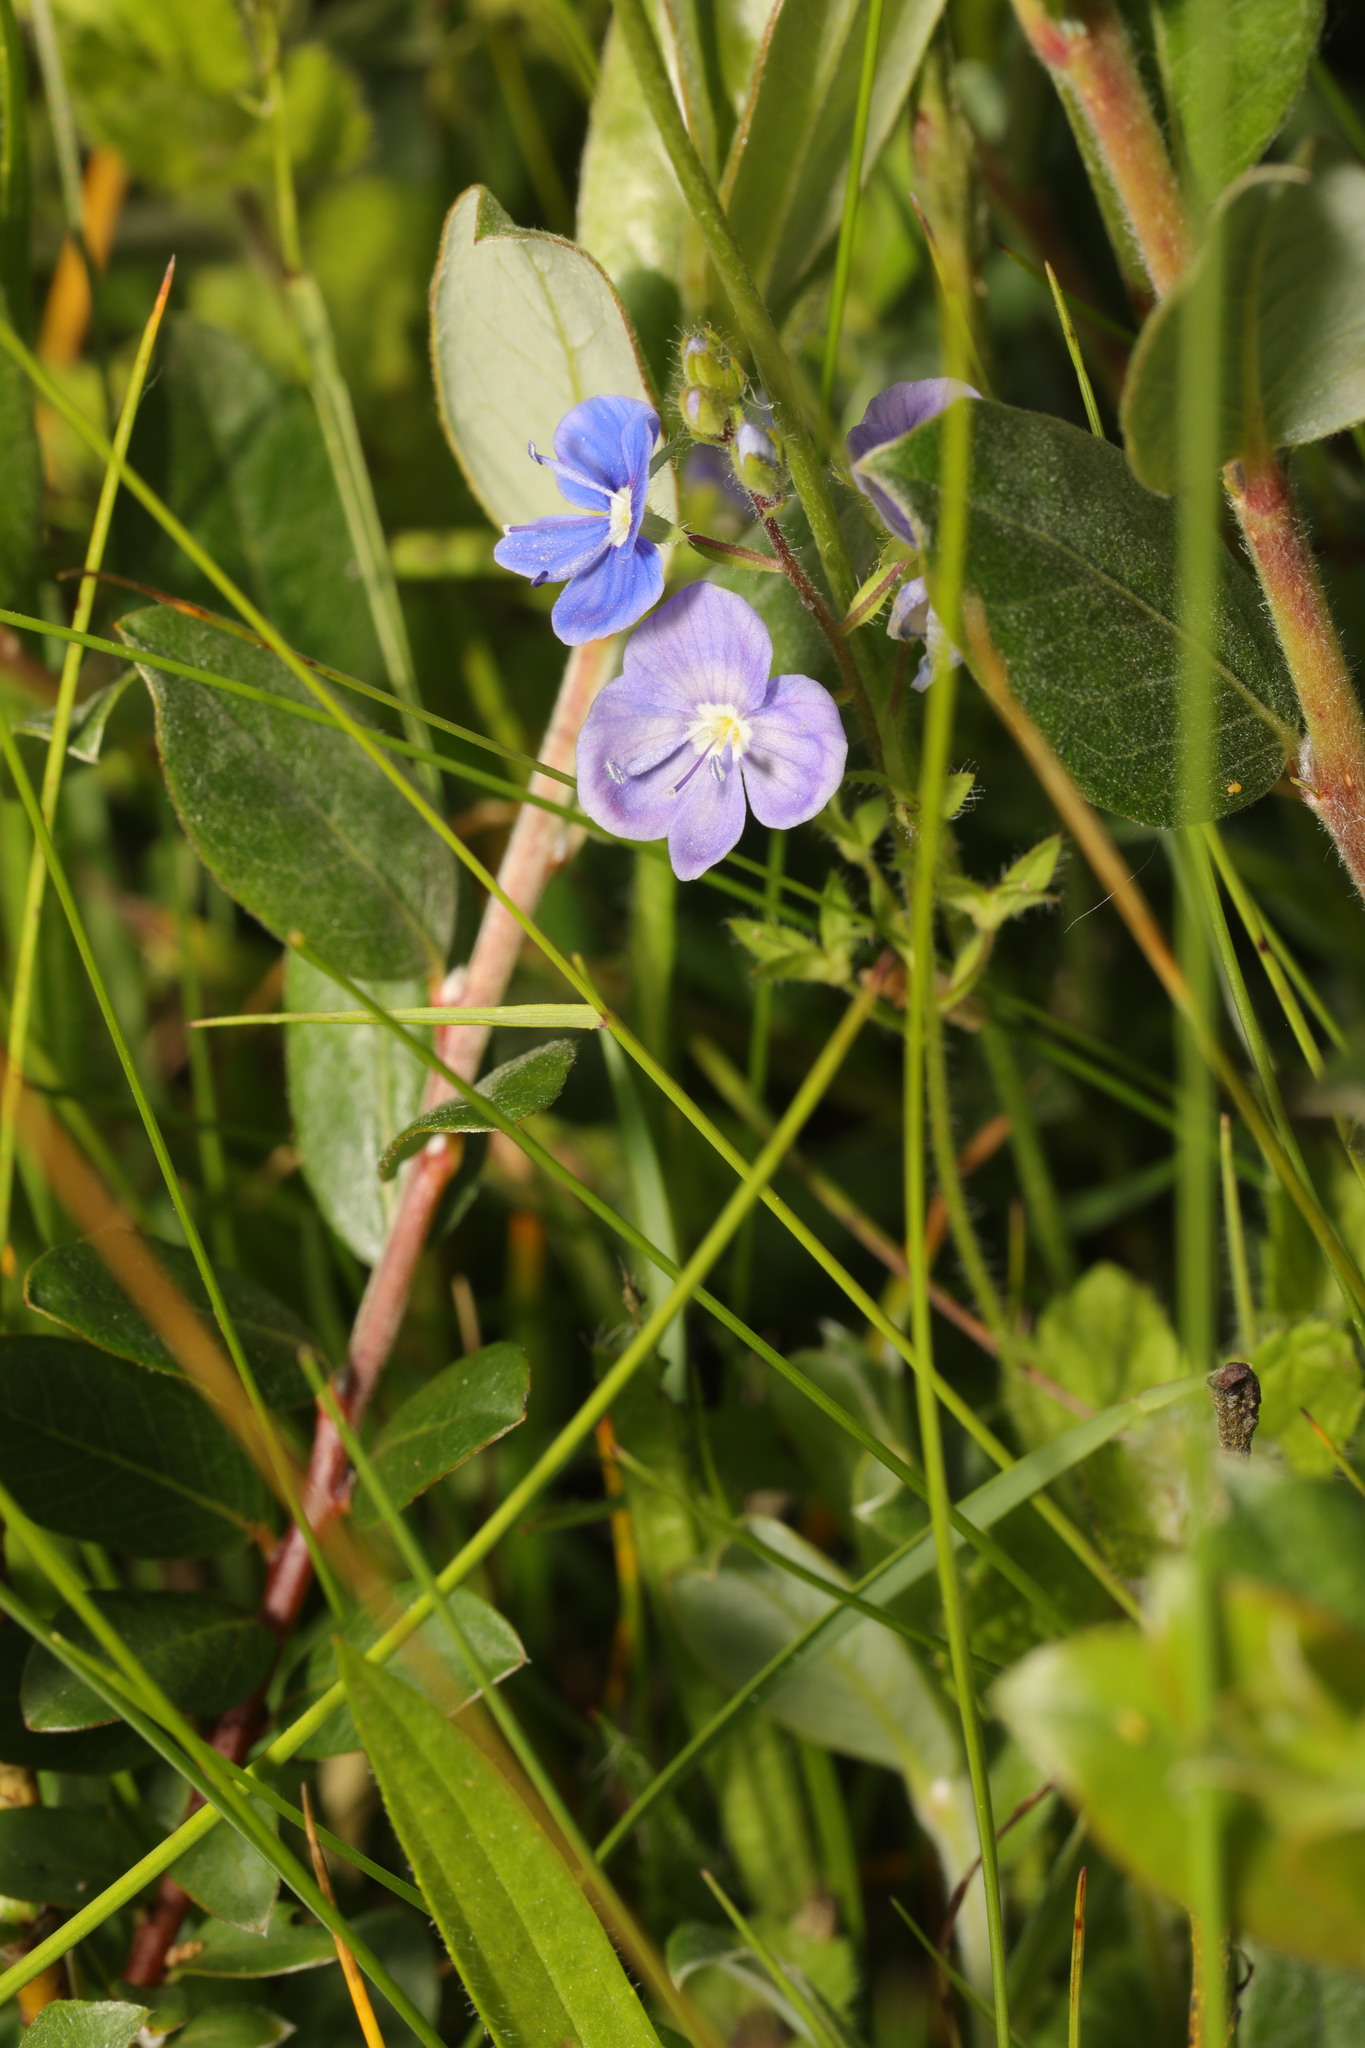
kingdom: Plantae
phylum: Tracheophyta
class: Magnoliopsida
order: Lamiales
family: Plantaginaceae
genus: Veronica
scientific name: Veronica chamaedrys
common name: Germander speedwell
